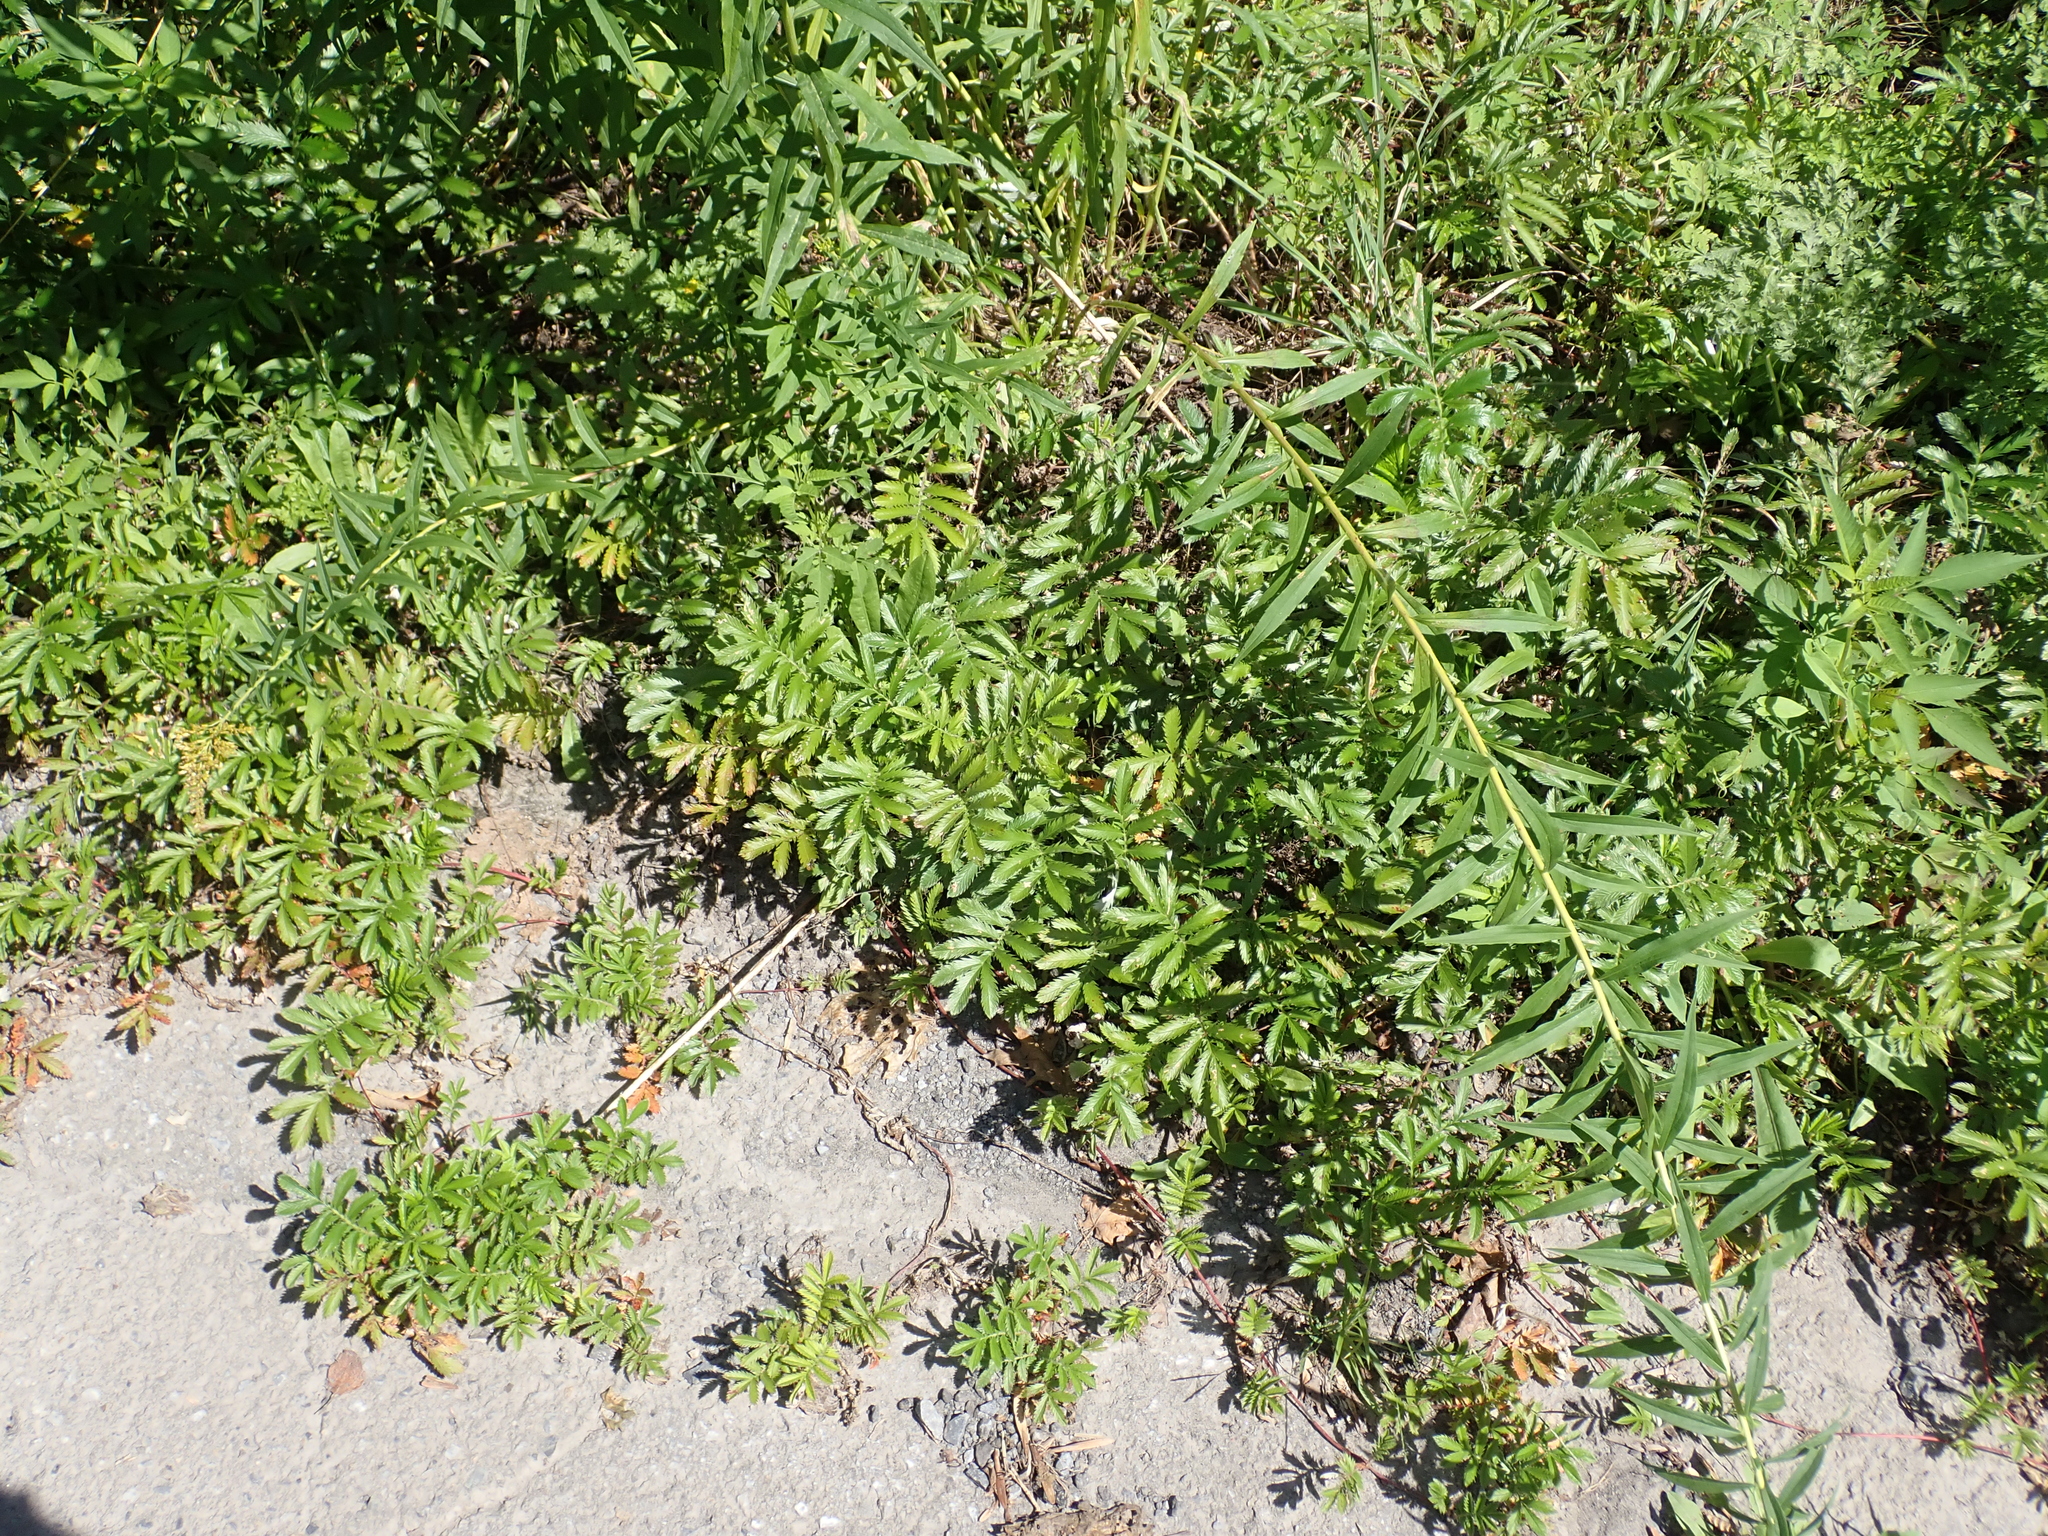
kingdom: Plantae
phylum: Tracheophyta
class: Magnoliopsida
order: Rosales
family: Rosaceae
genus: Argentina
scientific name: Argentina anserina
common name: Common silverweed
